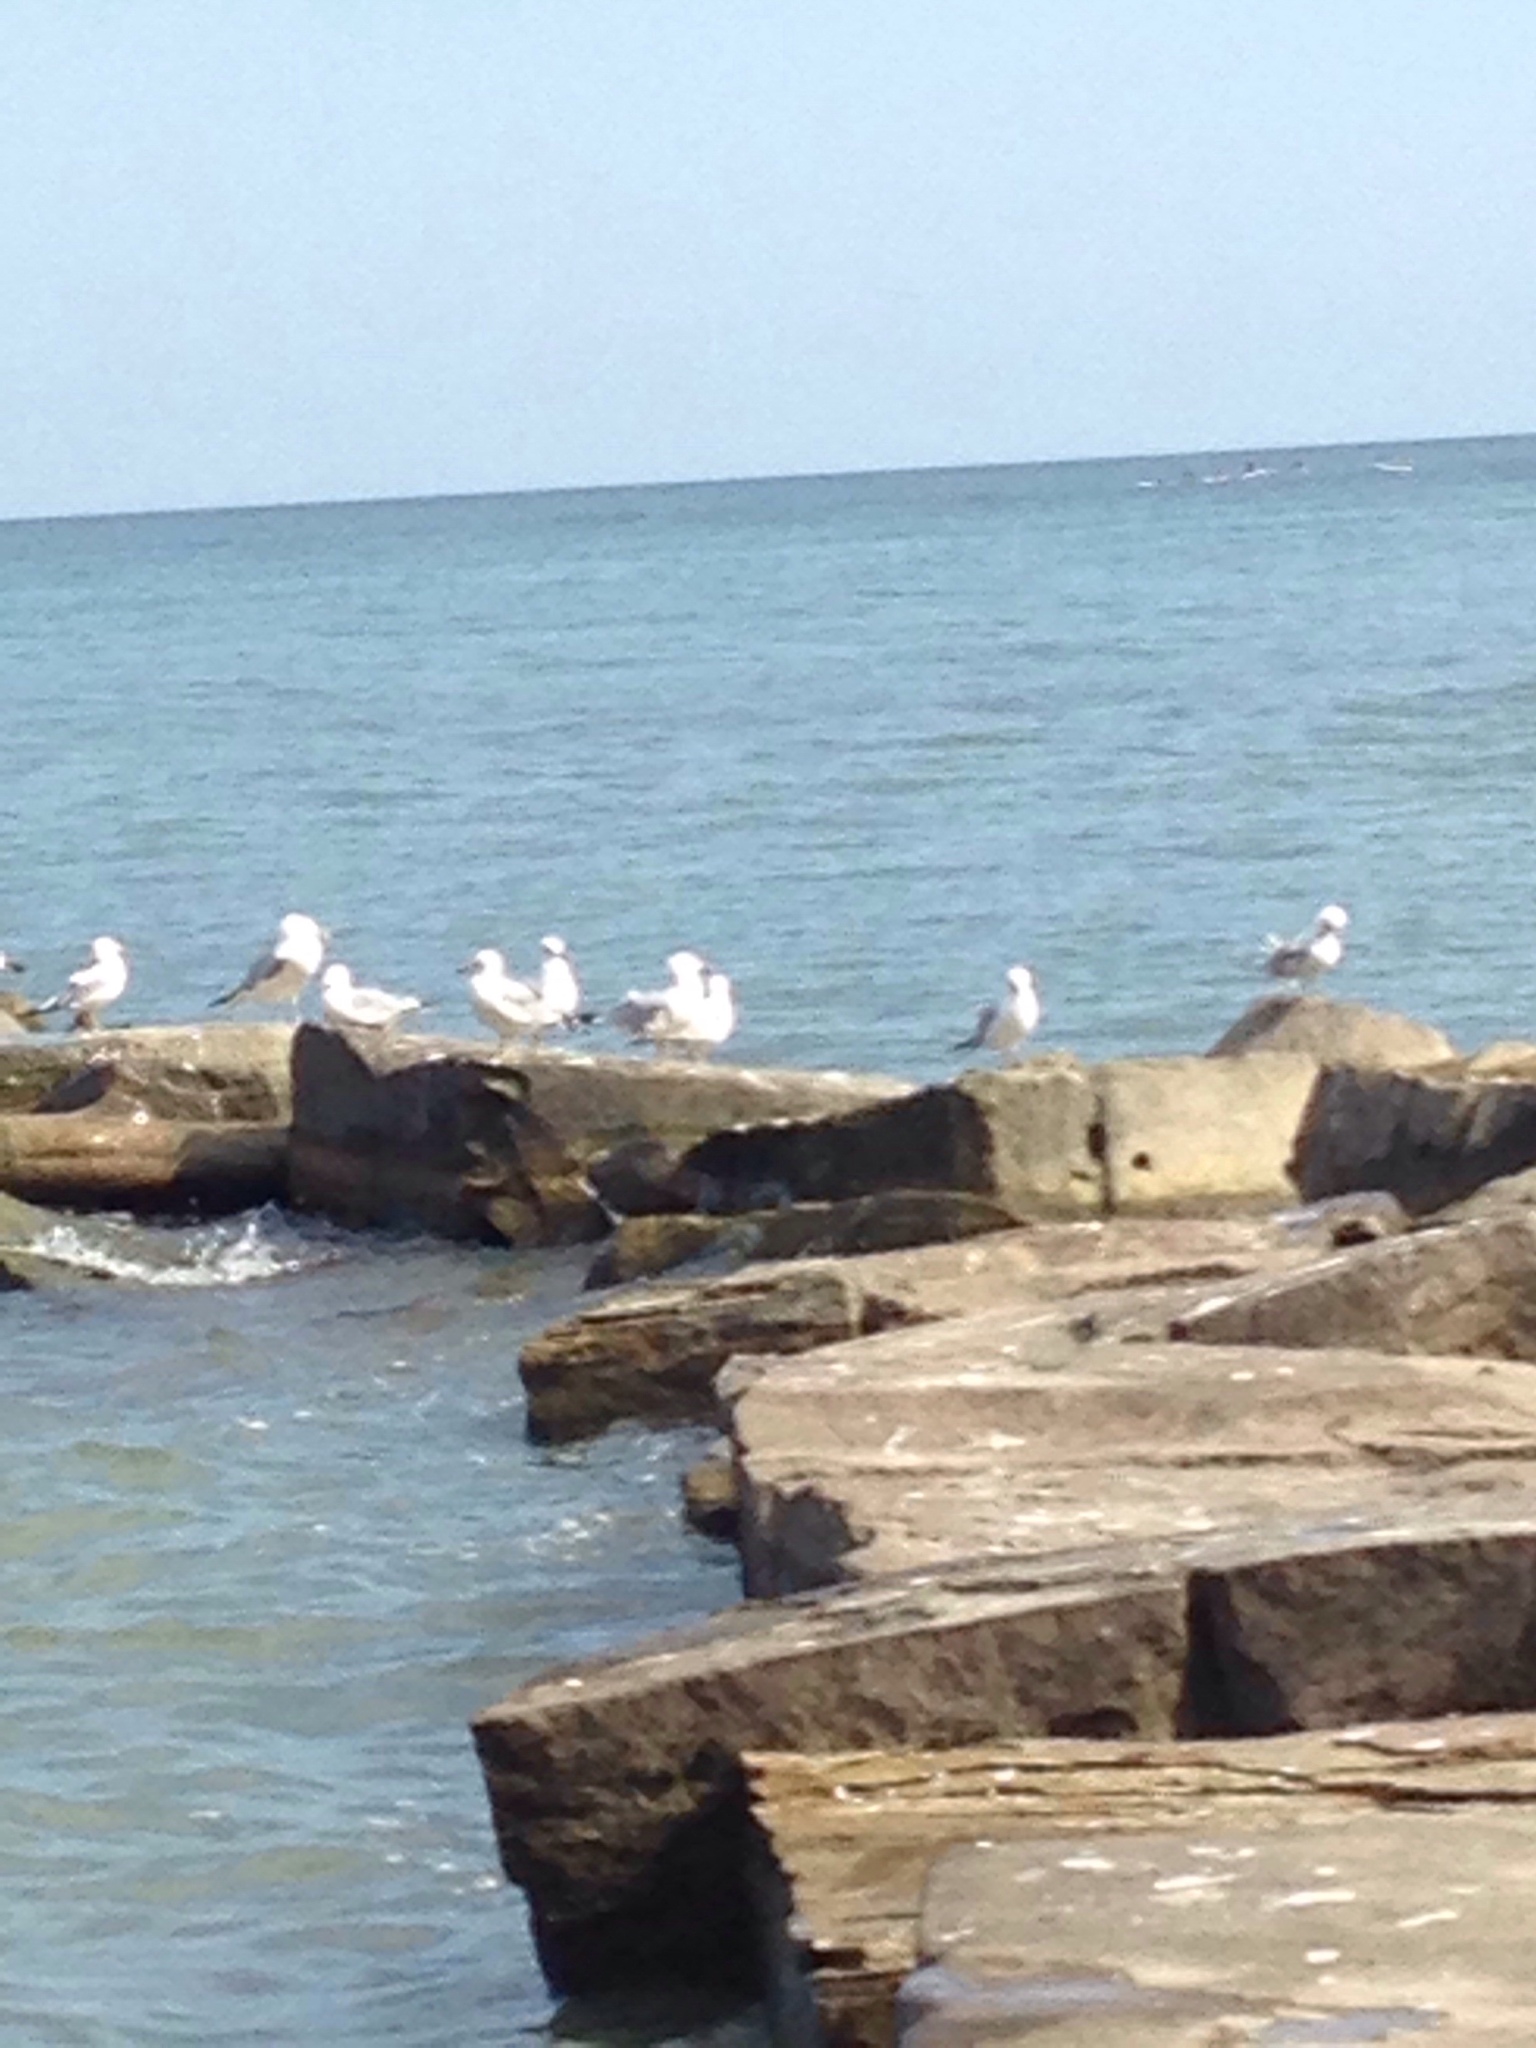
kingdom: Animalia
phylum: Chordata
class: Aves
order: Charadriiformes
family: Laridae
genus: Larus
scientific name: Larus delawarensis
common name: Ring-billed gull
